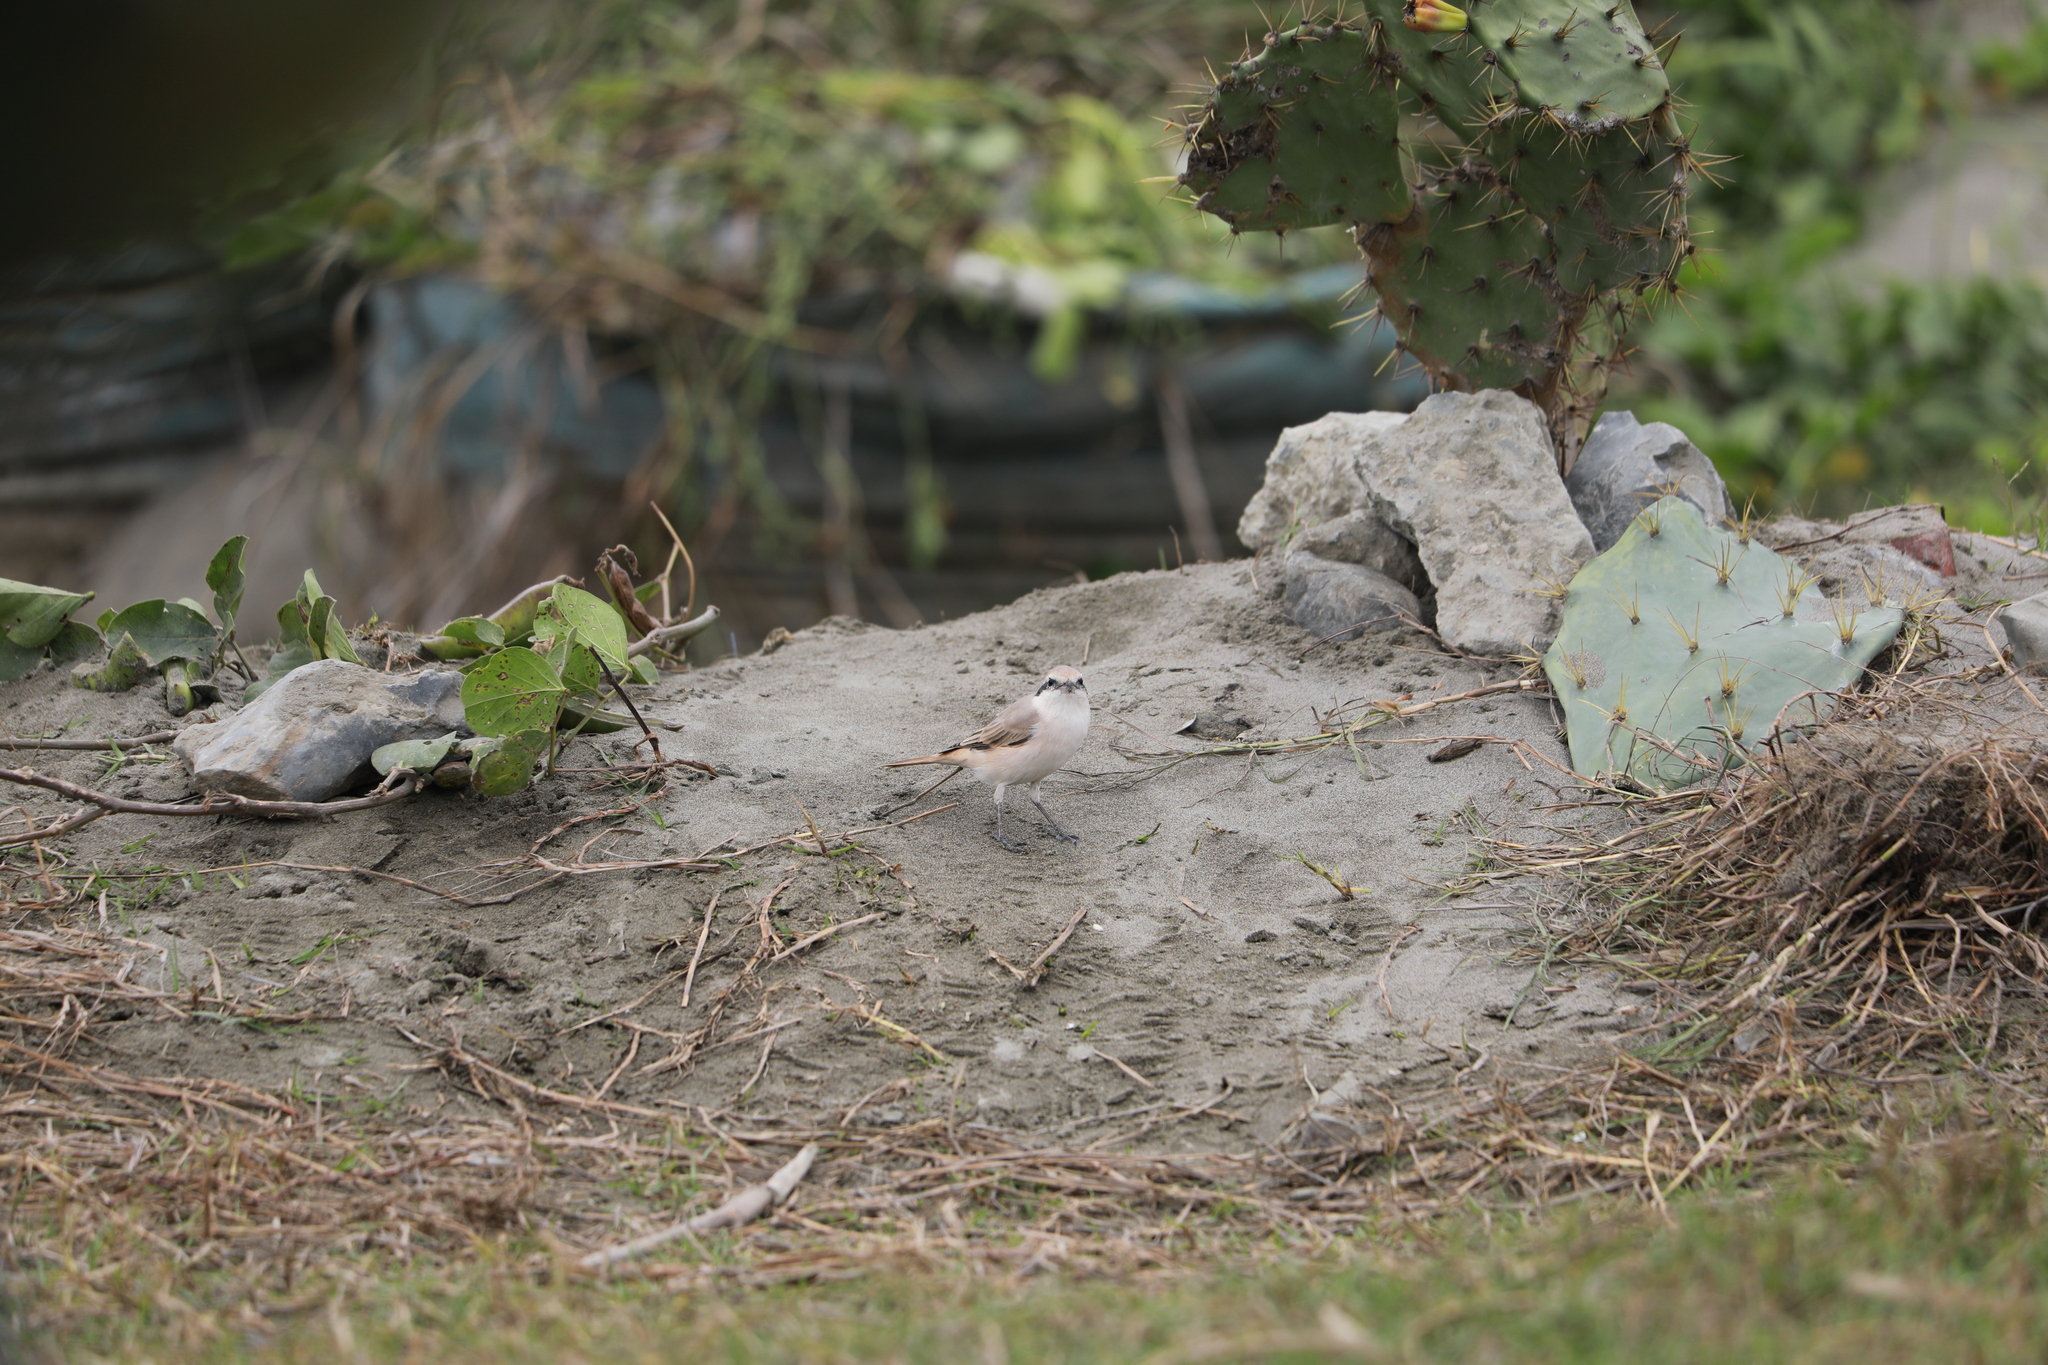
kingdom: Animalia
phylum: Chordata
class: Aves
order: Passeriformes
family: Laniidae
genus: Lanius
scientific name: Lanius isabellinus
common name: Isabelline shrike
